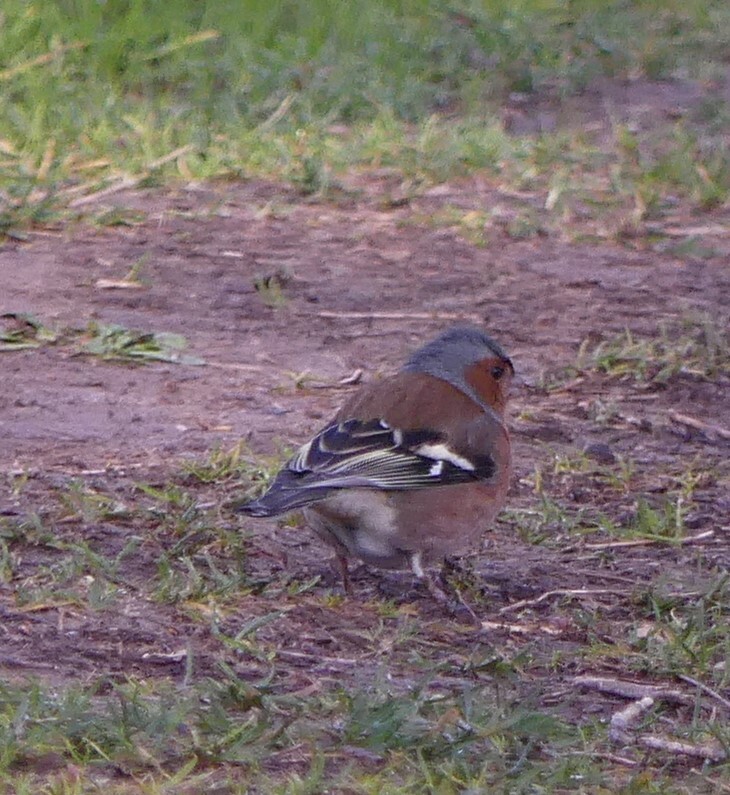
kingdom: Animalia
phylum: Chordata
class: Aves
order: Passeriformes
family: Fringillidae
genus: Fringilla
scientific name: Fringilla coelebs
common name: Common chaffinch
